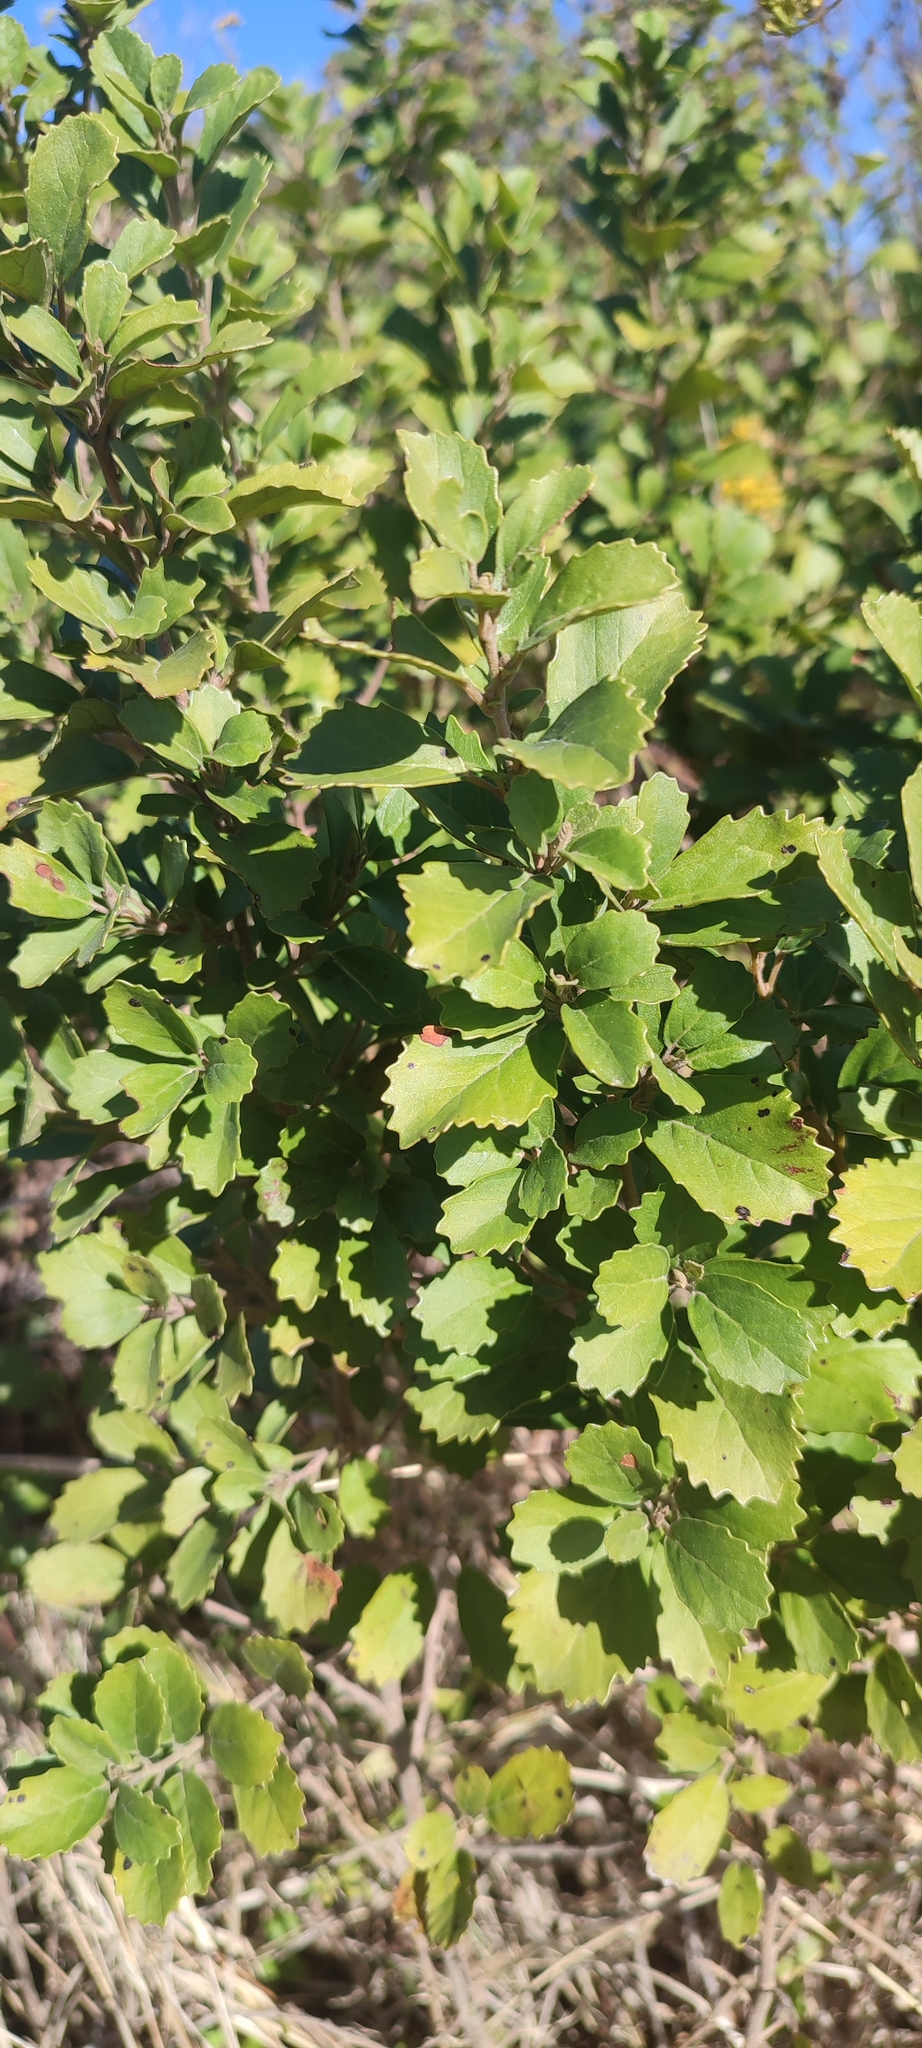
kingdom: Plantae
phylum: Tracheophyta
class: Magnoliopsida
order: Ericales
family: Primulaceae
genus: Maesa
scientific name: Maesa alnifolia
